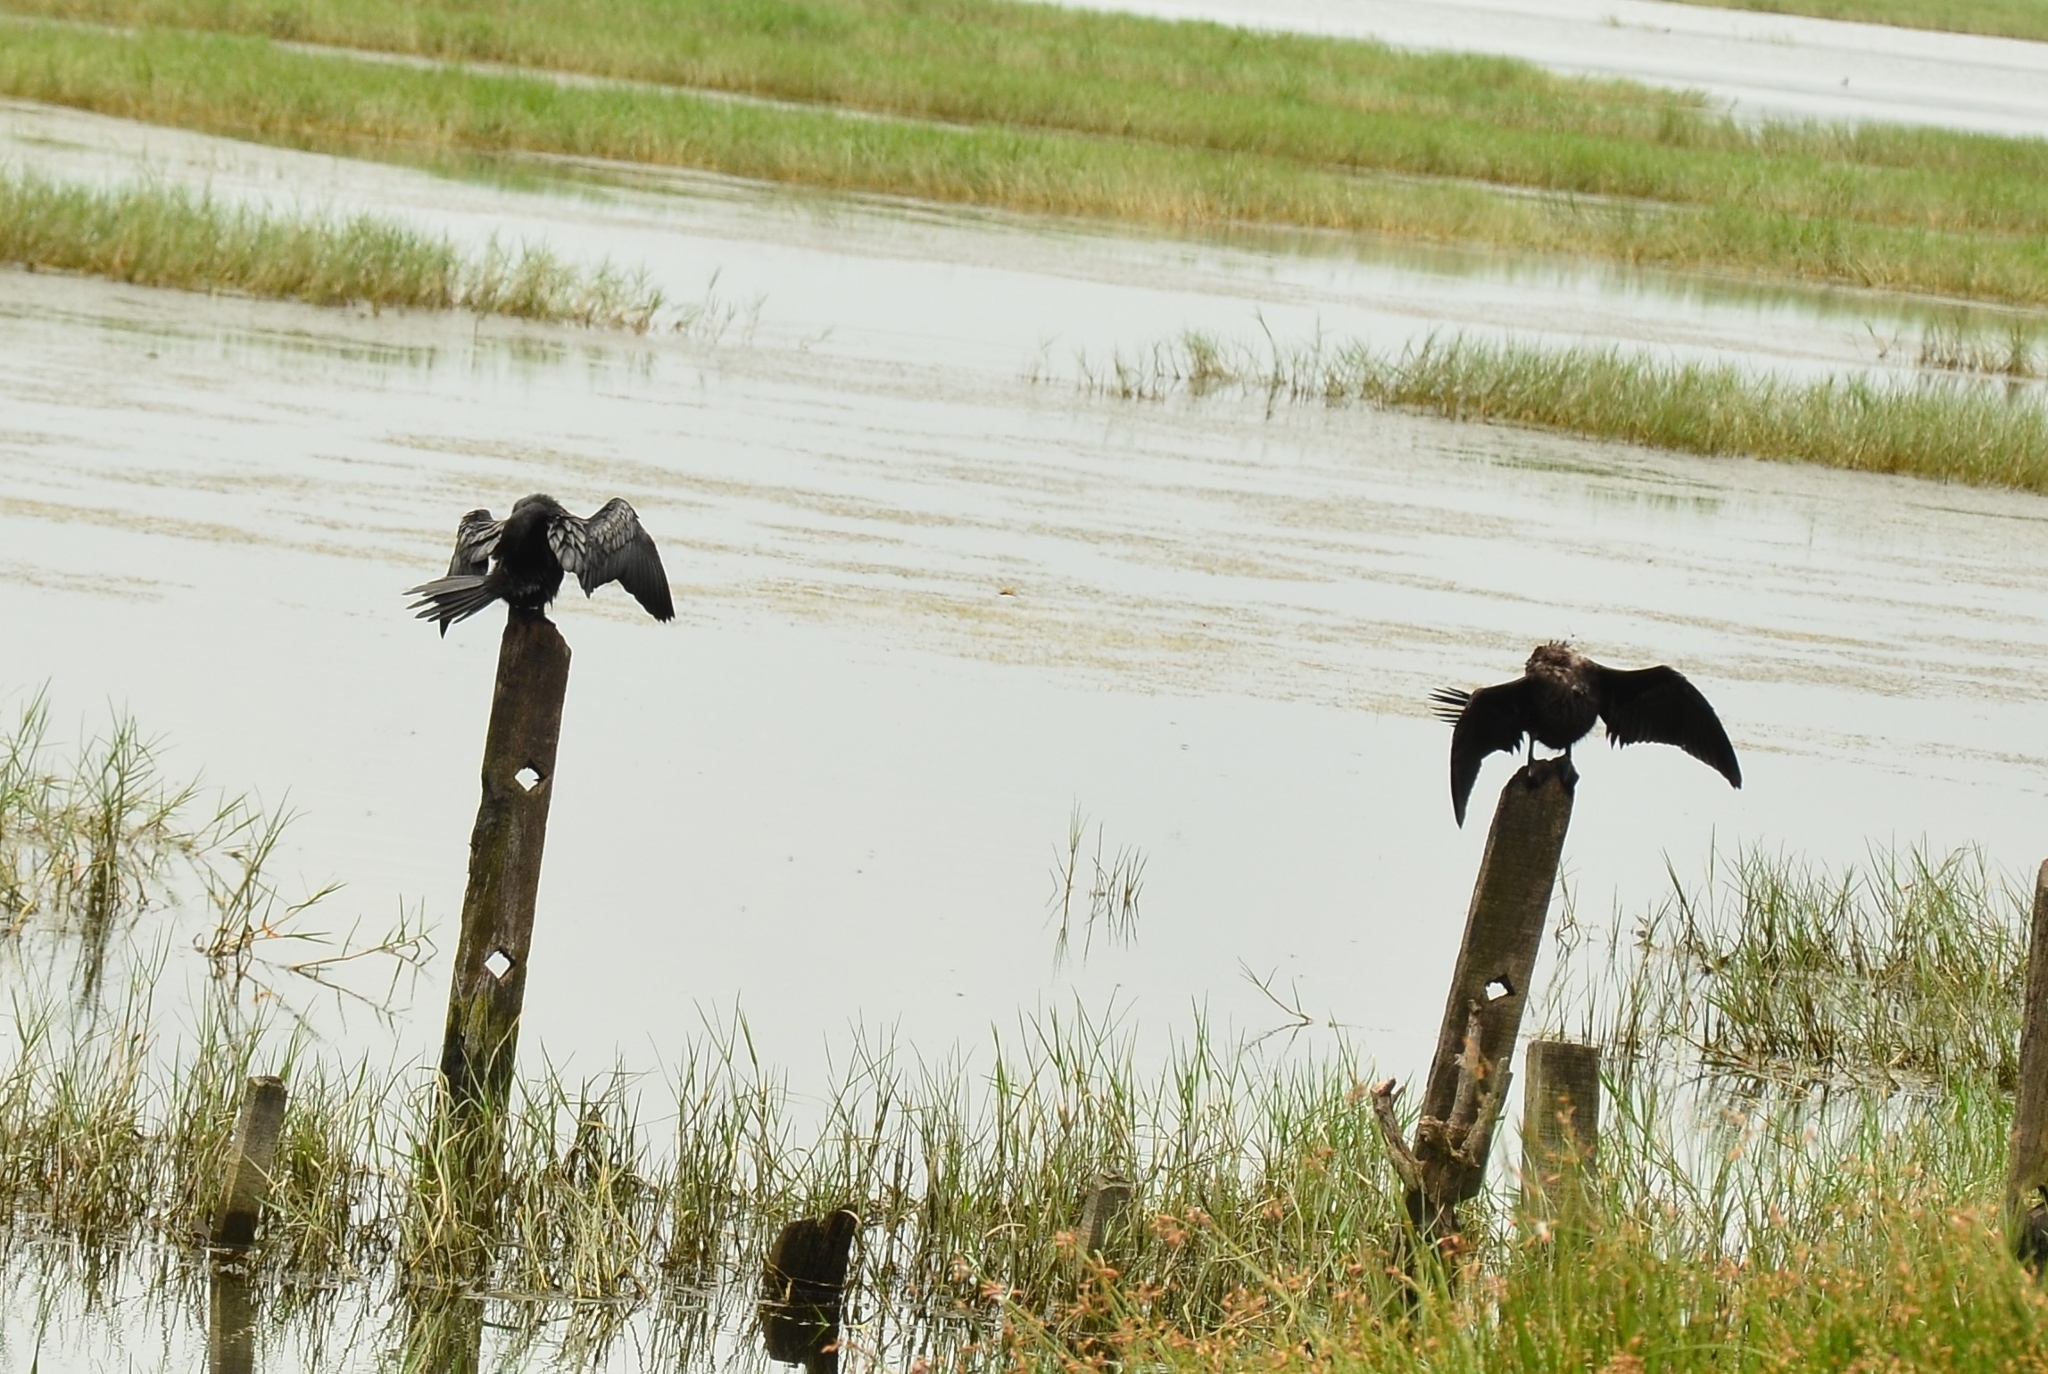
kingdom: Animalia
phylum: Chordata
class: Aves
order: Suliformes
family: Phalacrocoracidae
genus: Microcarbo
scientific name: Microcarbo niger
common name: Little cormorant
